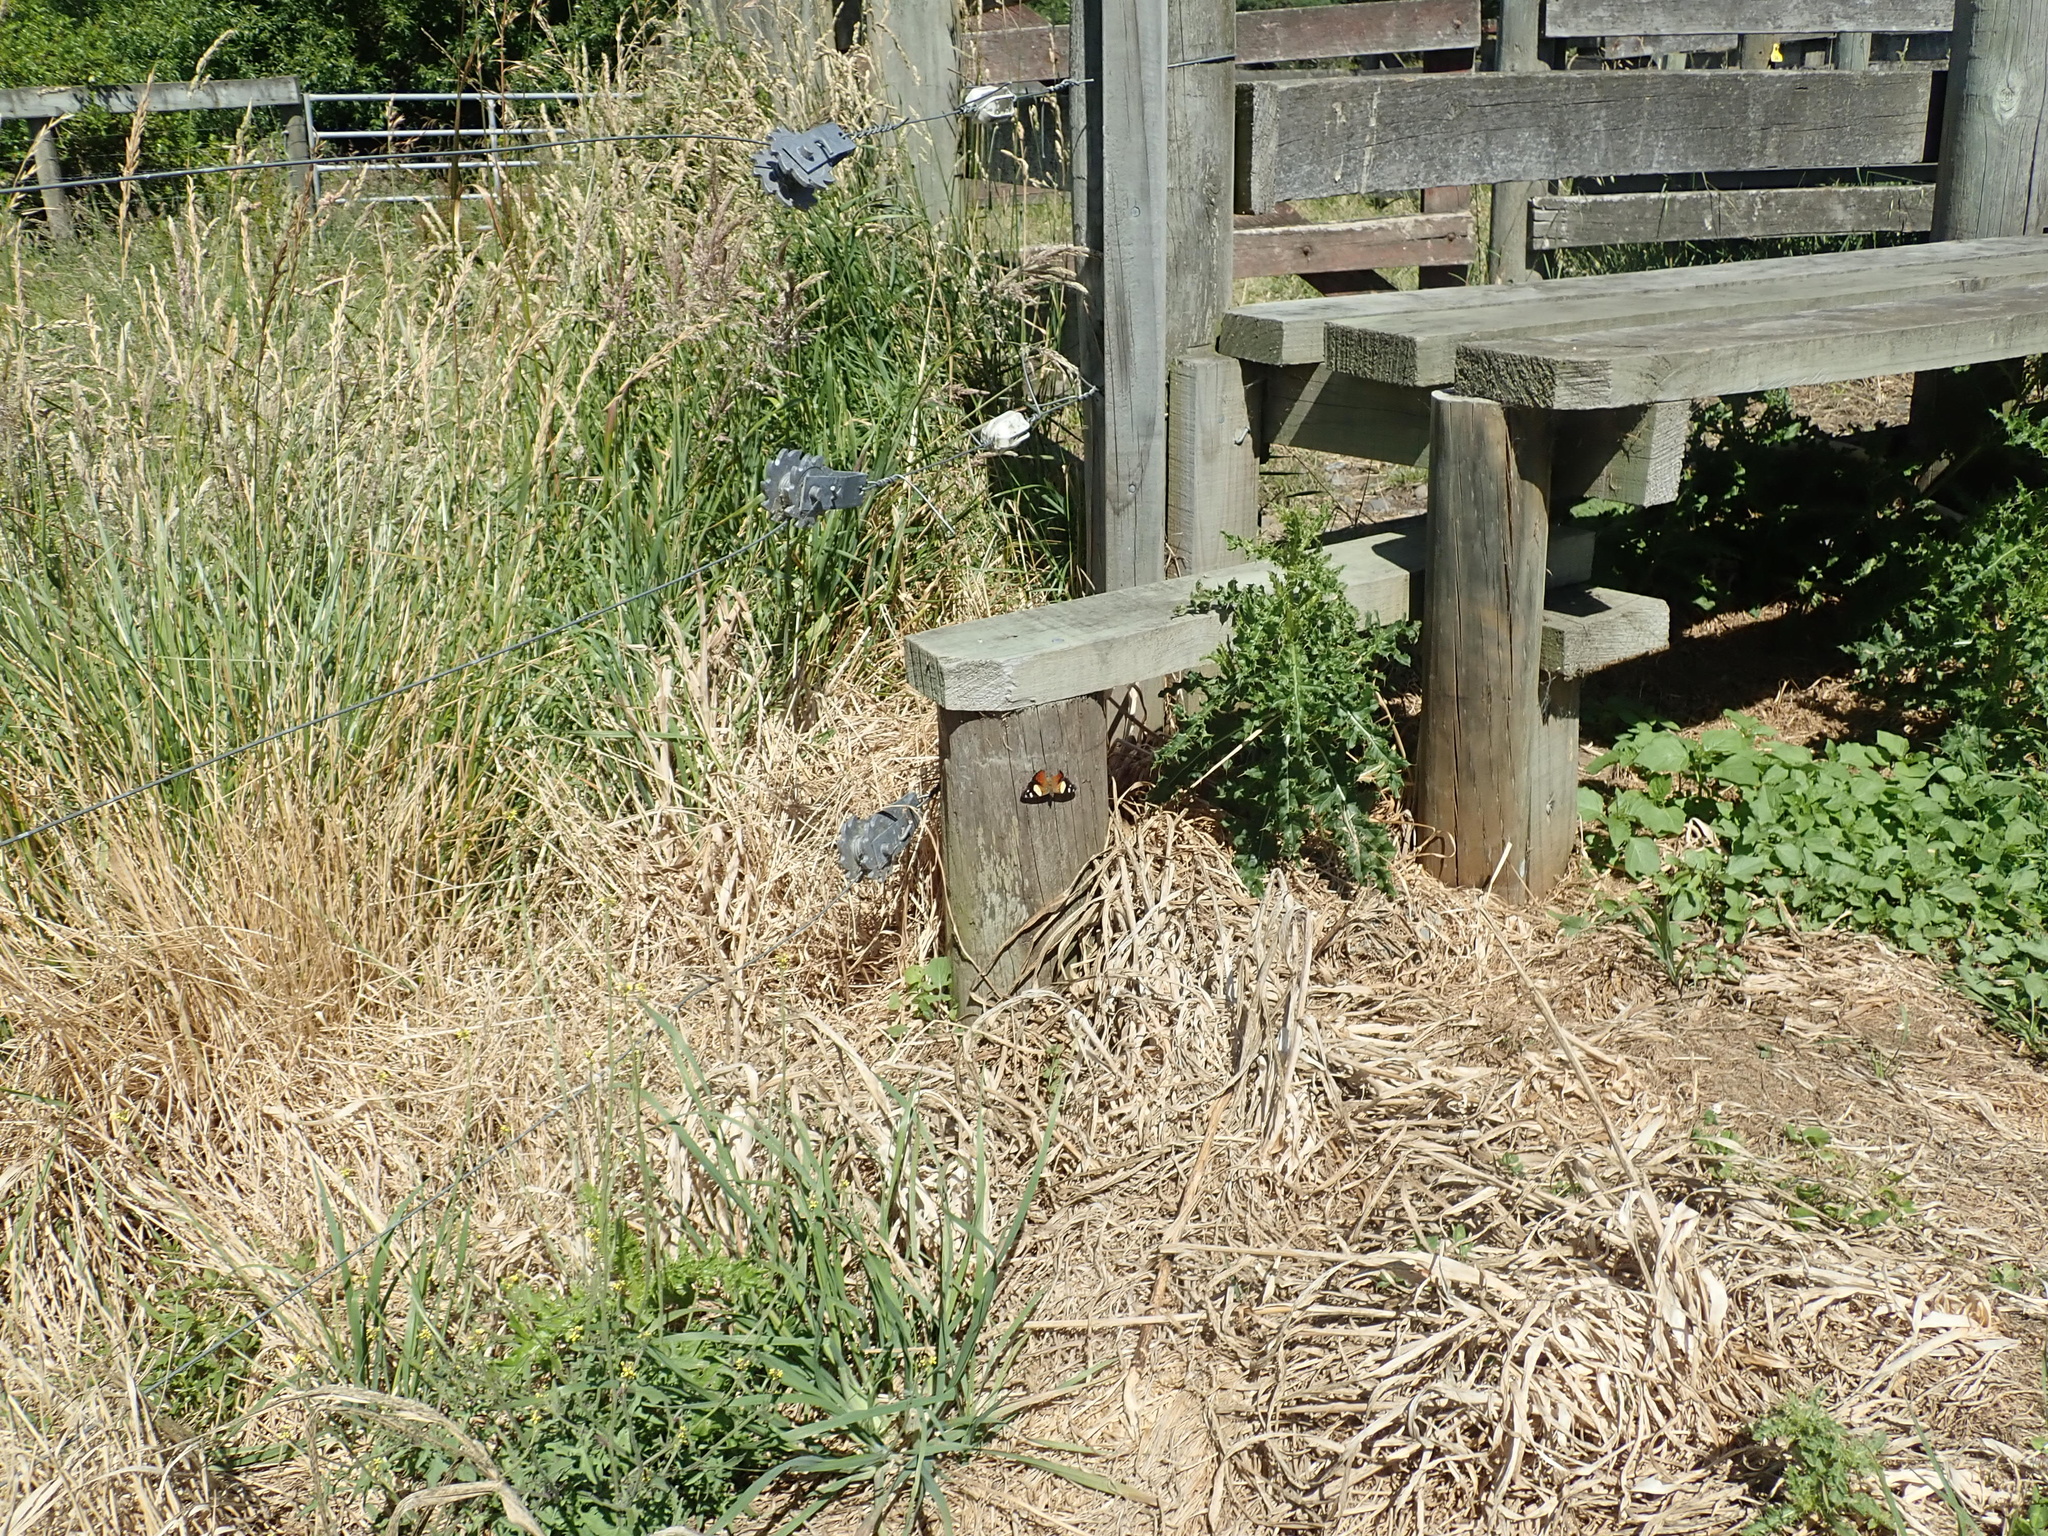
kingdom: Animalia
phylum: Arthropoda
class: Insecta
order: Lepidoptera
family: Nymphalidae
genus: Vanessa
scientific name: Vanessa itea
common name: Yellow admiral
